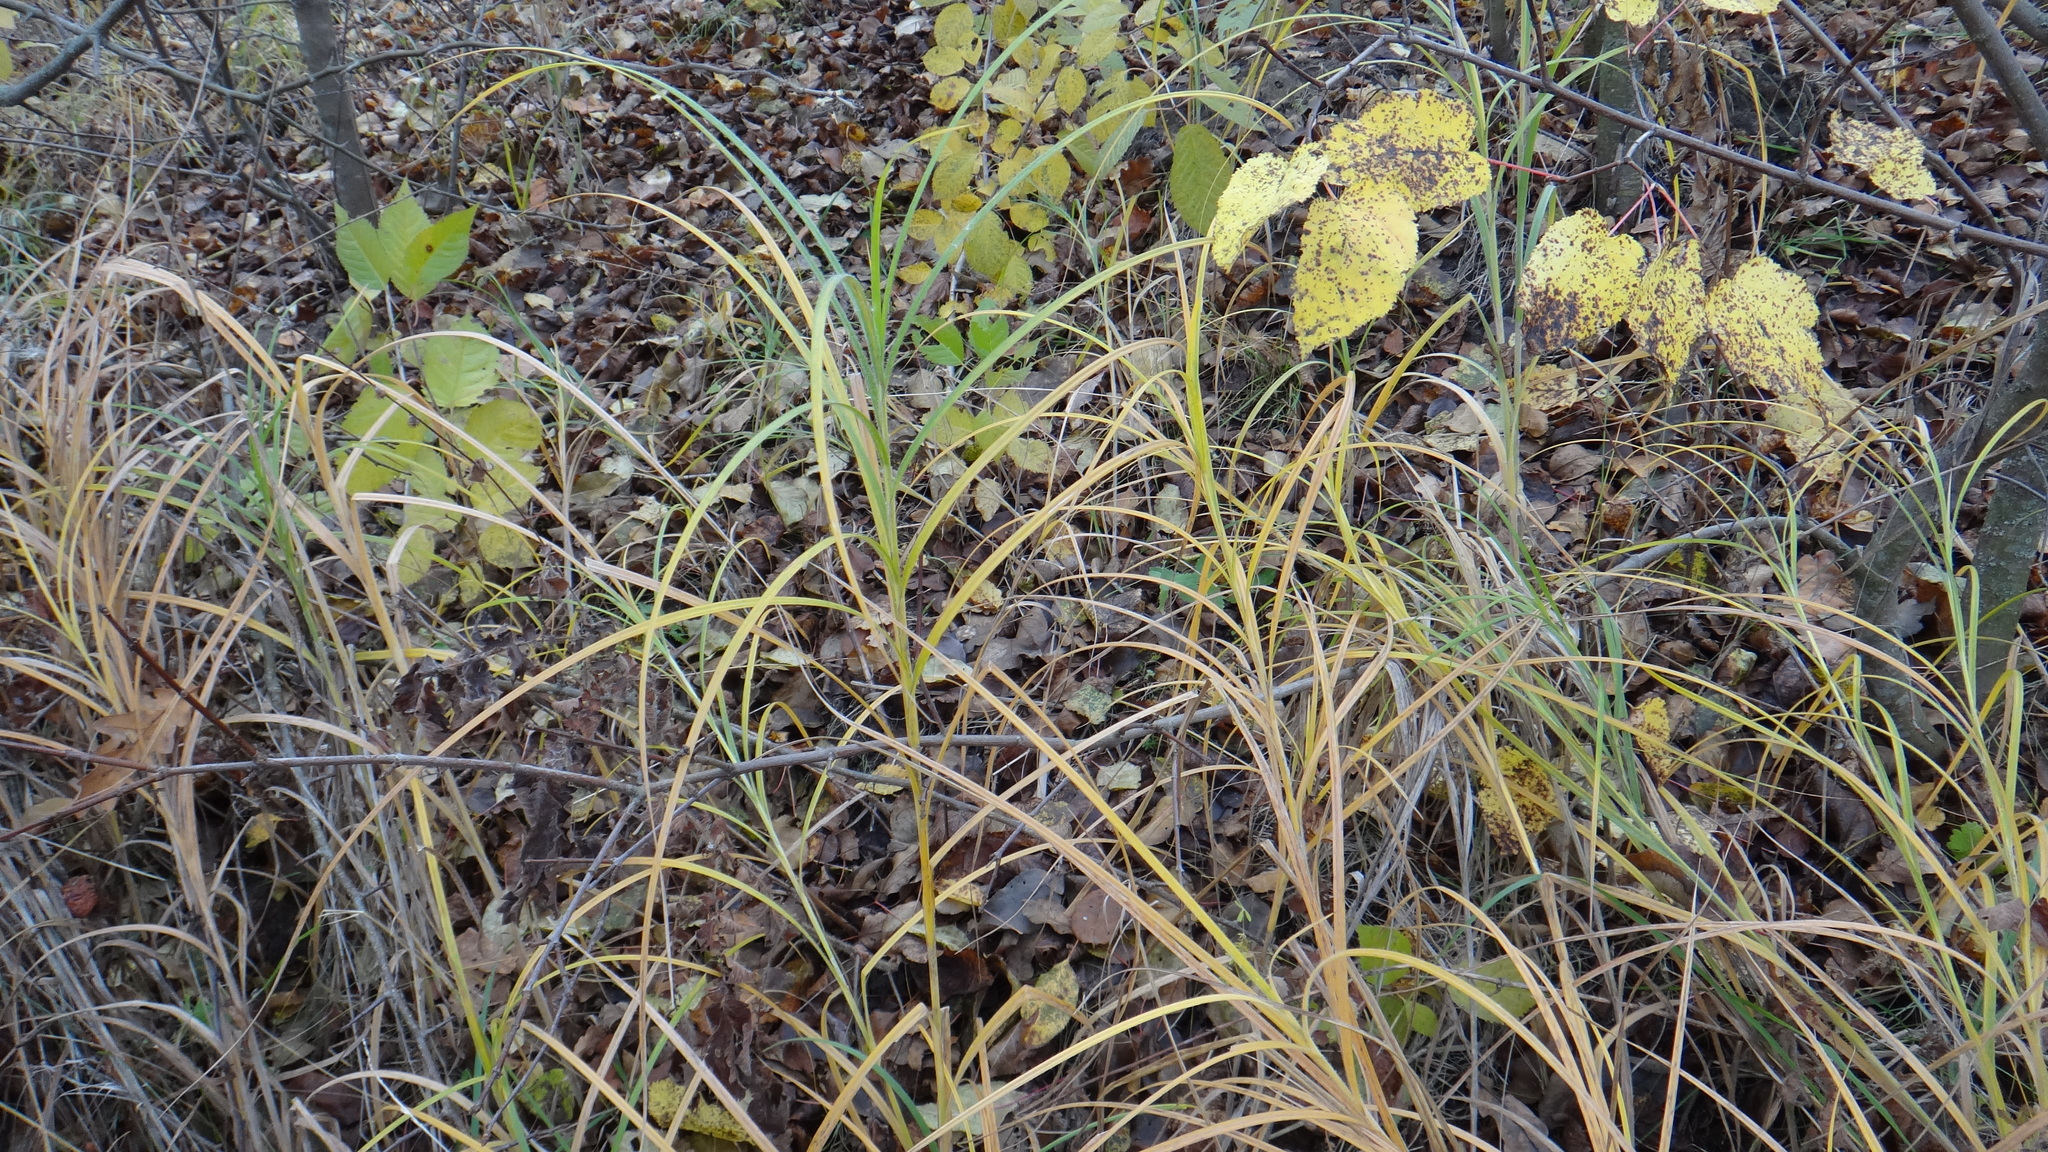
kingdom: Plantae
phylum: Tracheophyta
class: Liliopsida
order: Poales
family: Cyperaceae
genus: Carex
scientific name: Carex hirta
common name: Hairy sedge
